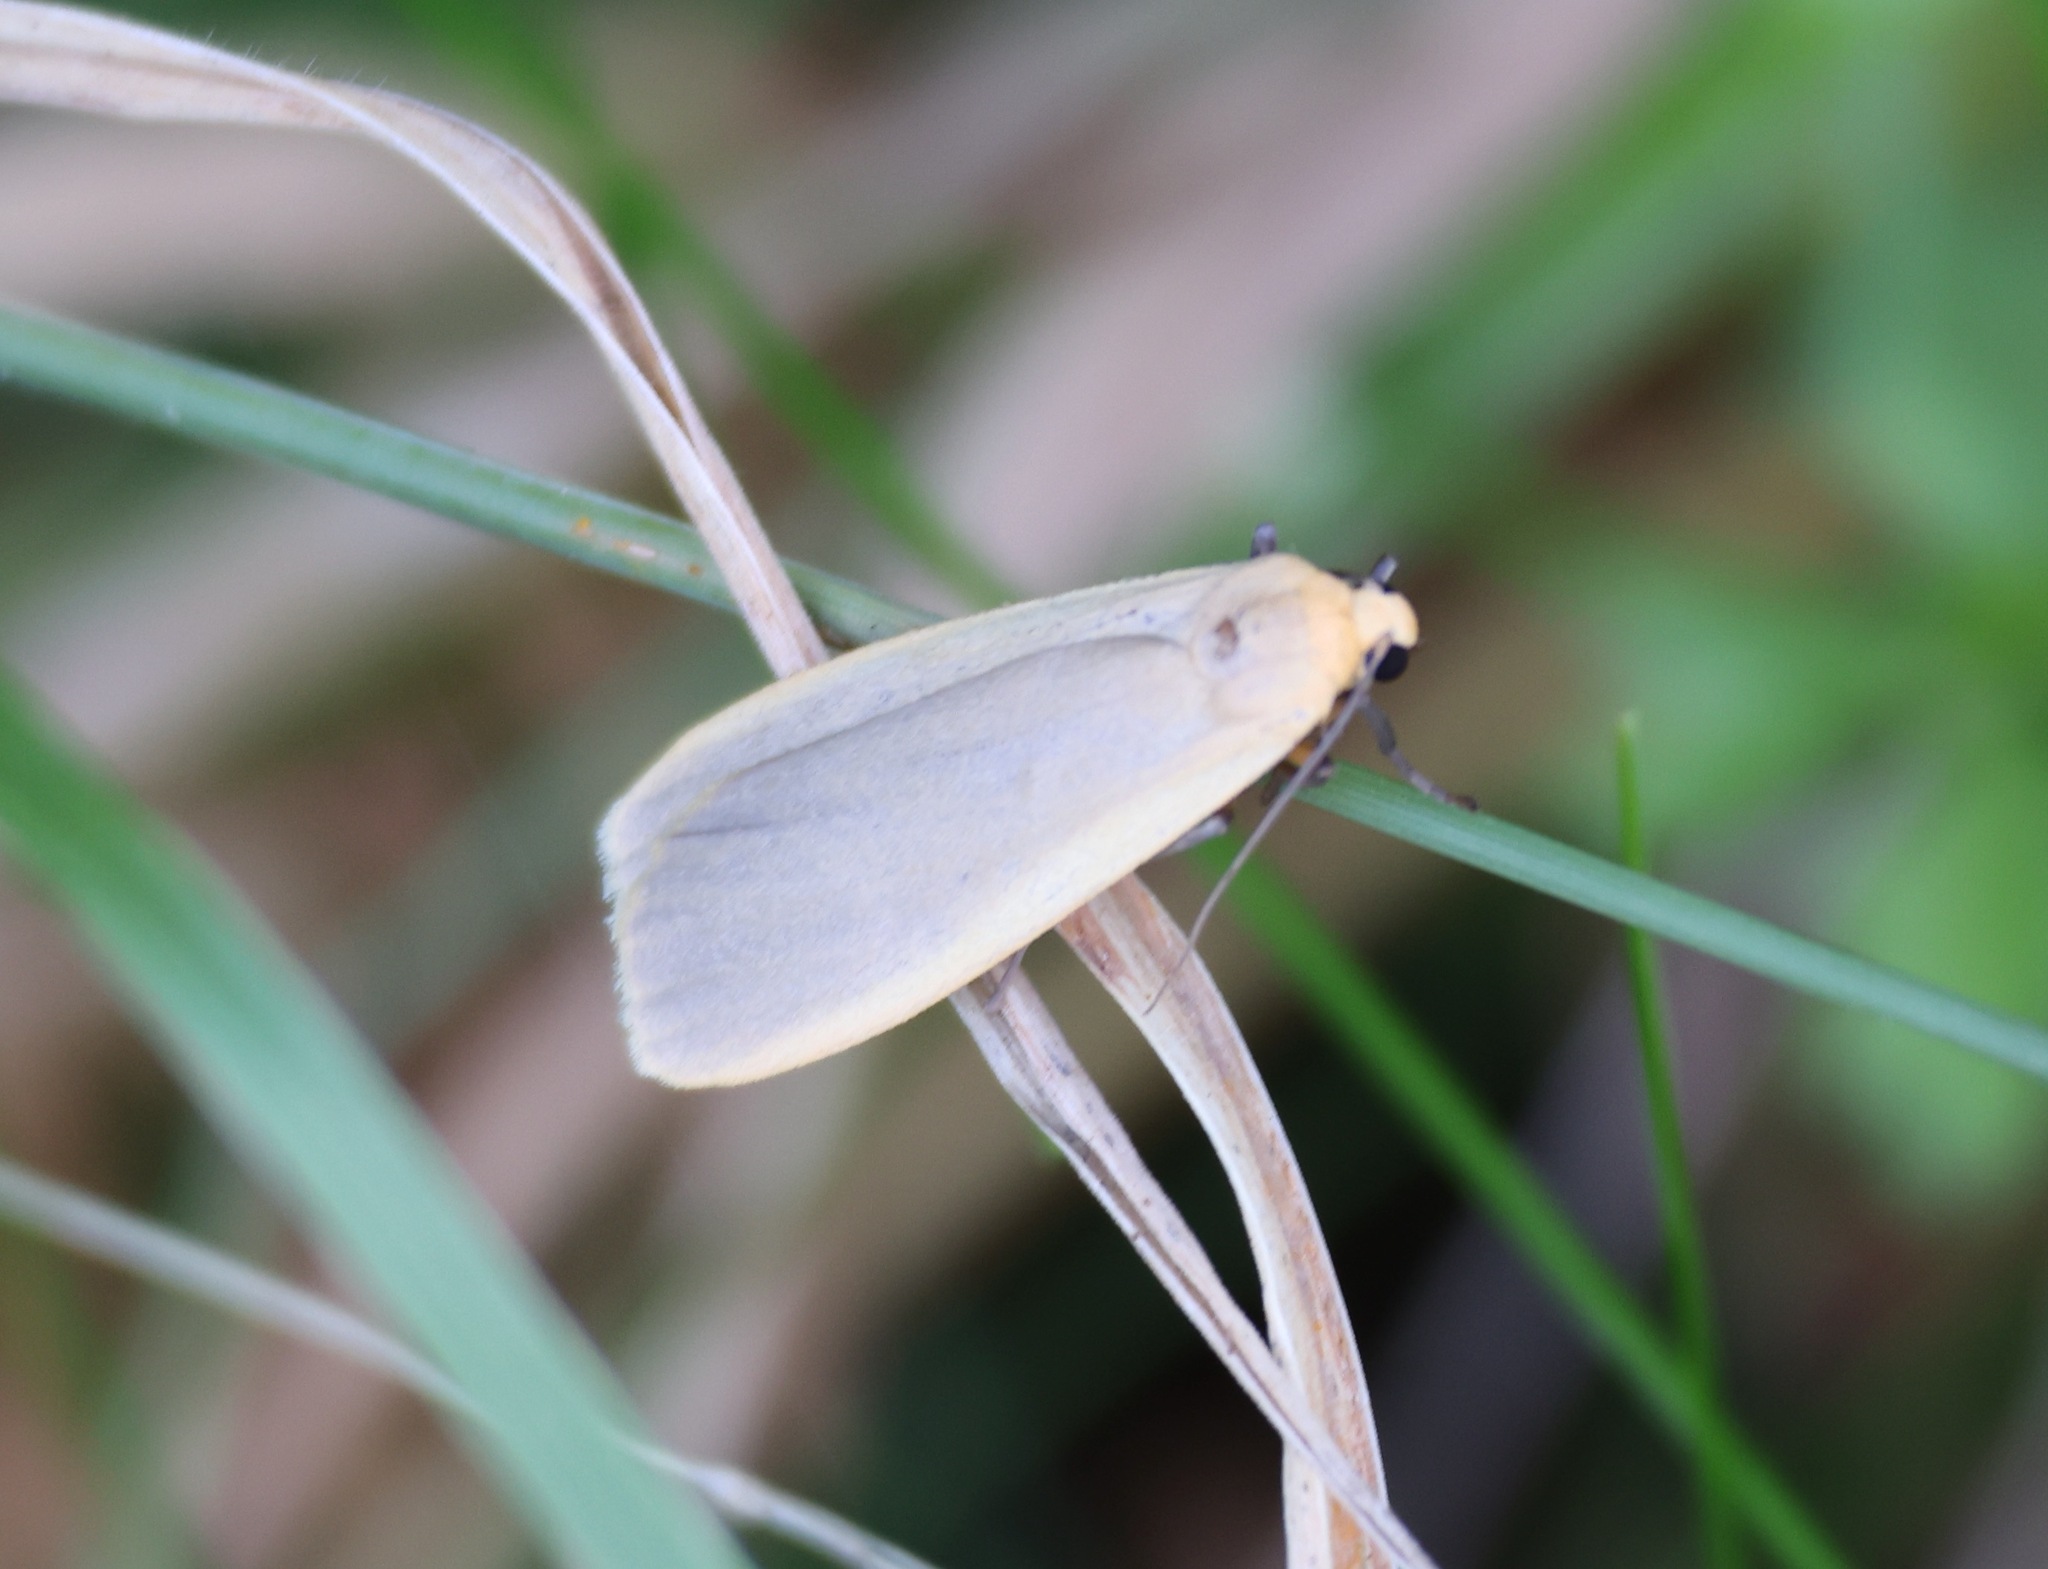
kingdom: Animalia
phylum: Arthropoda
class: Insecta
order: Lepidoptera
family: Erebidae
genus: Collita
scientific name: Collita griseola
